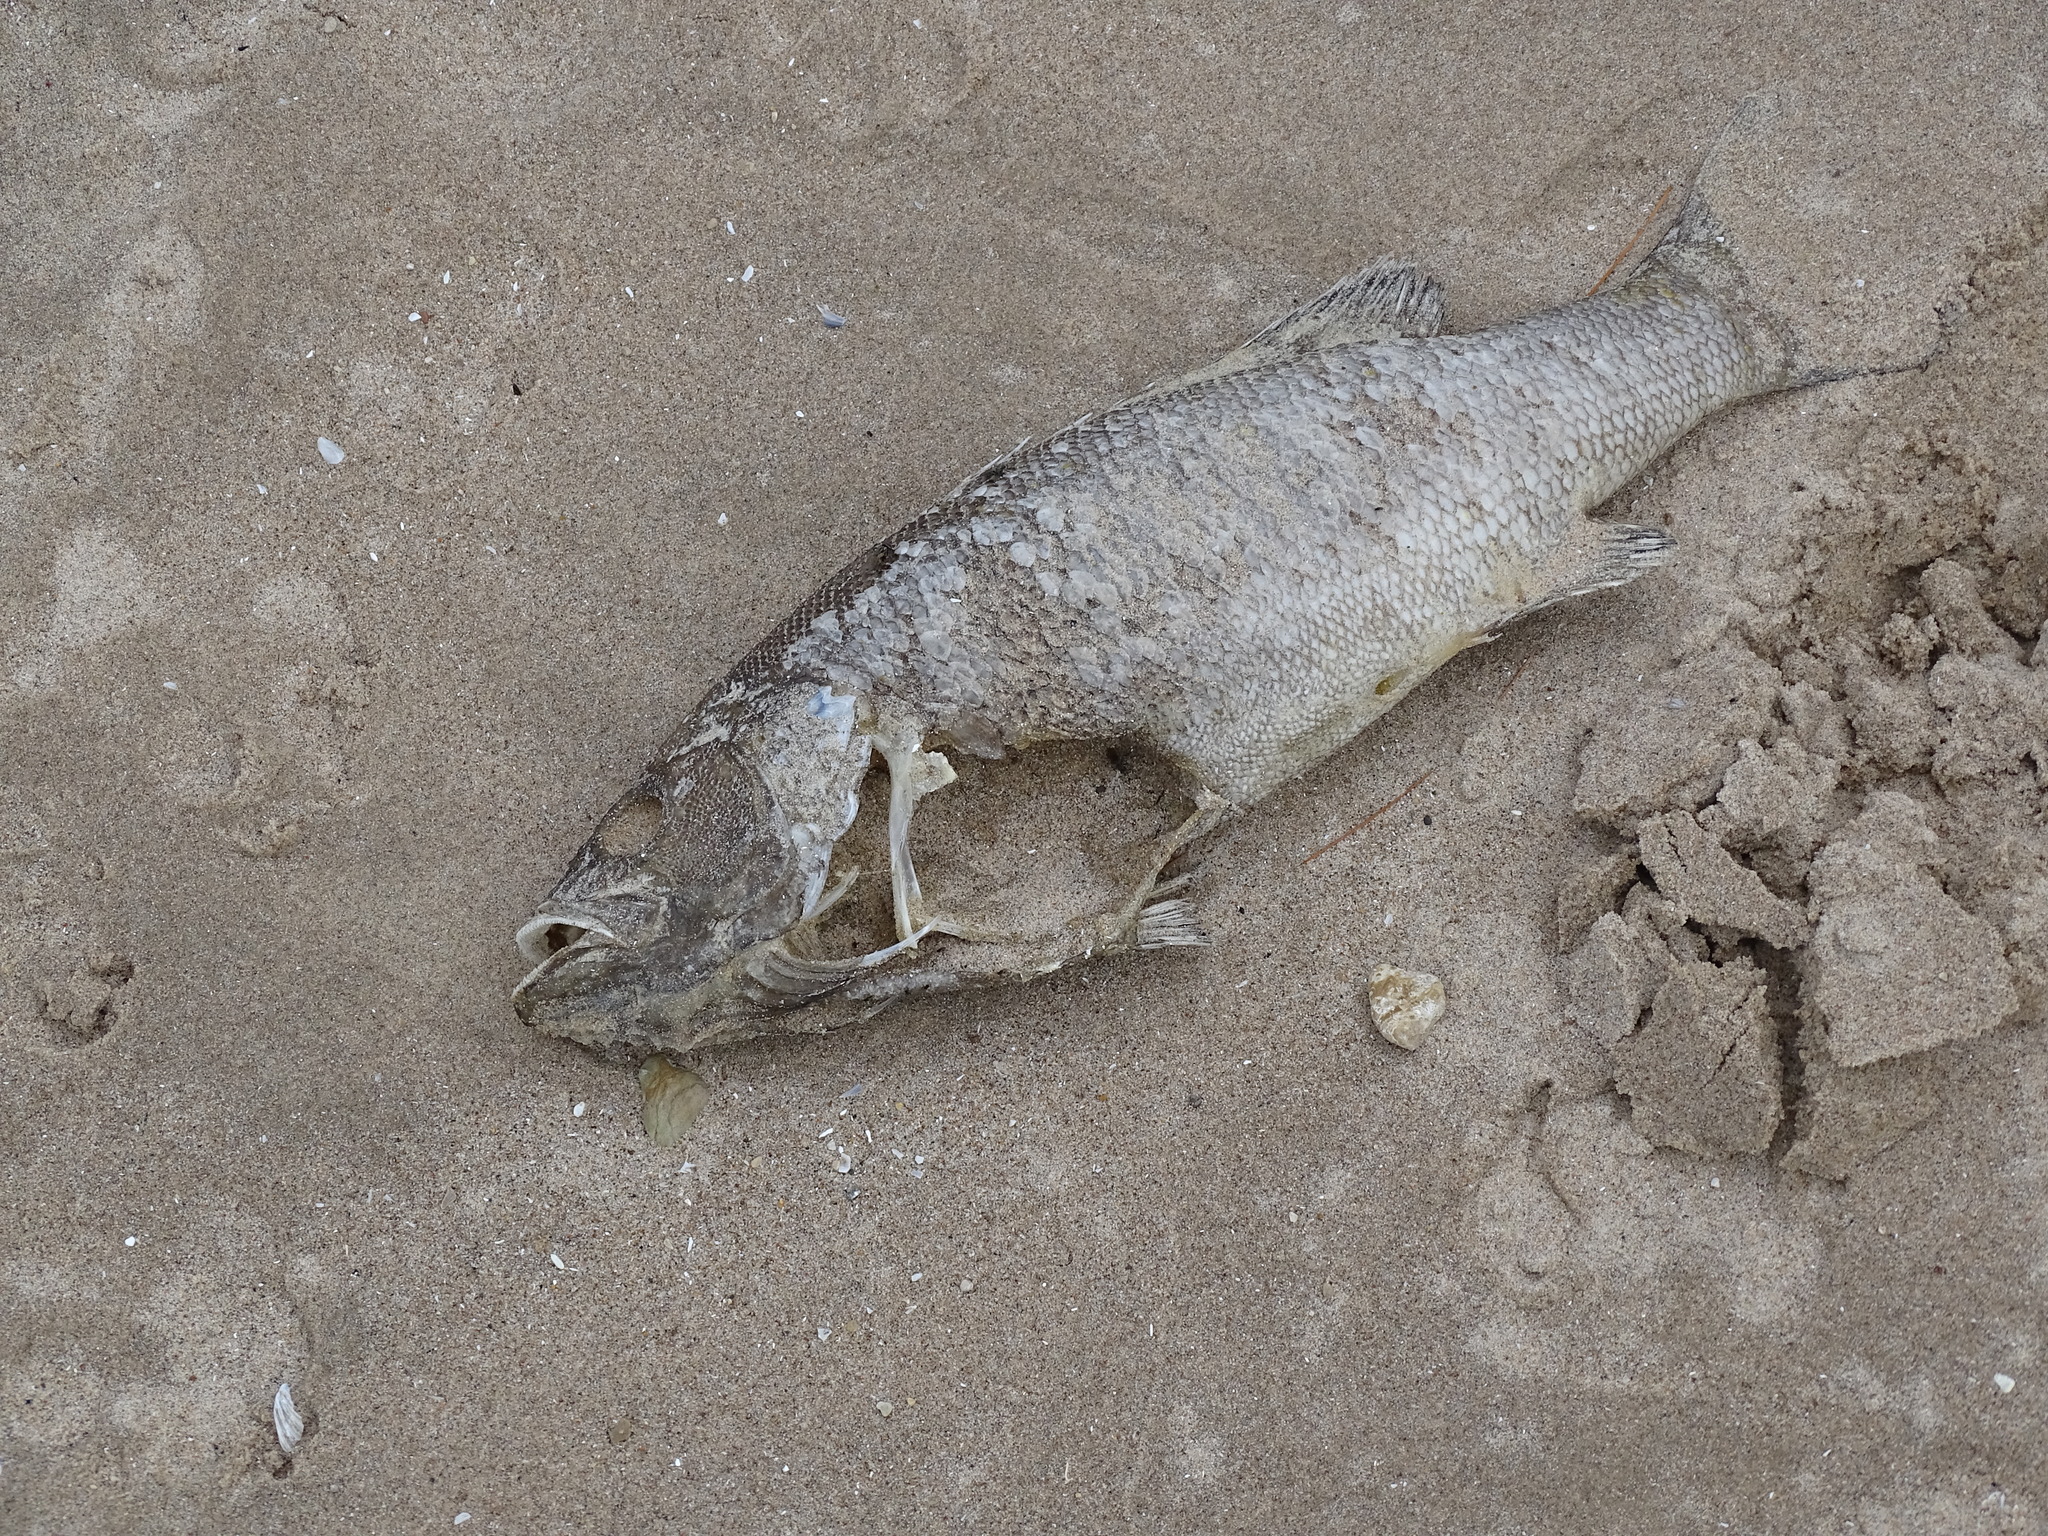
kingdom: Animalia
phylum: Chordata
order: Perciformes
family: Centrarchidae
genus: Micropterus
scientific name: Micropterus dolomieu
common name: Smallmouth bass
